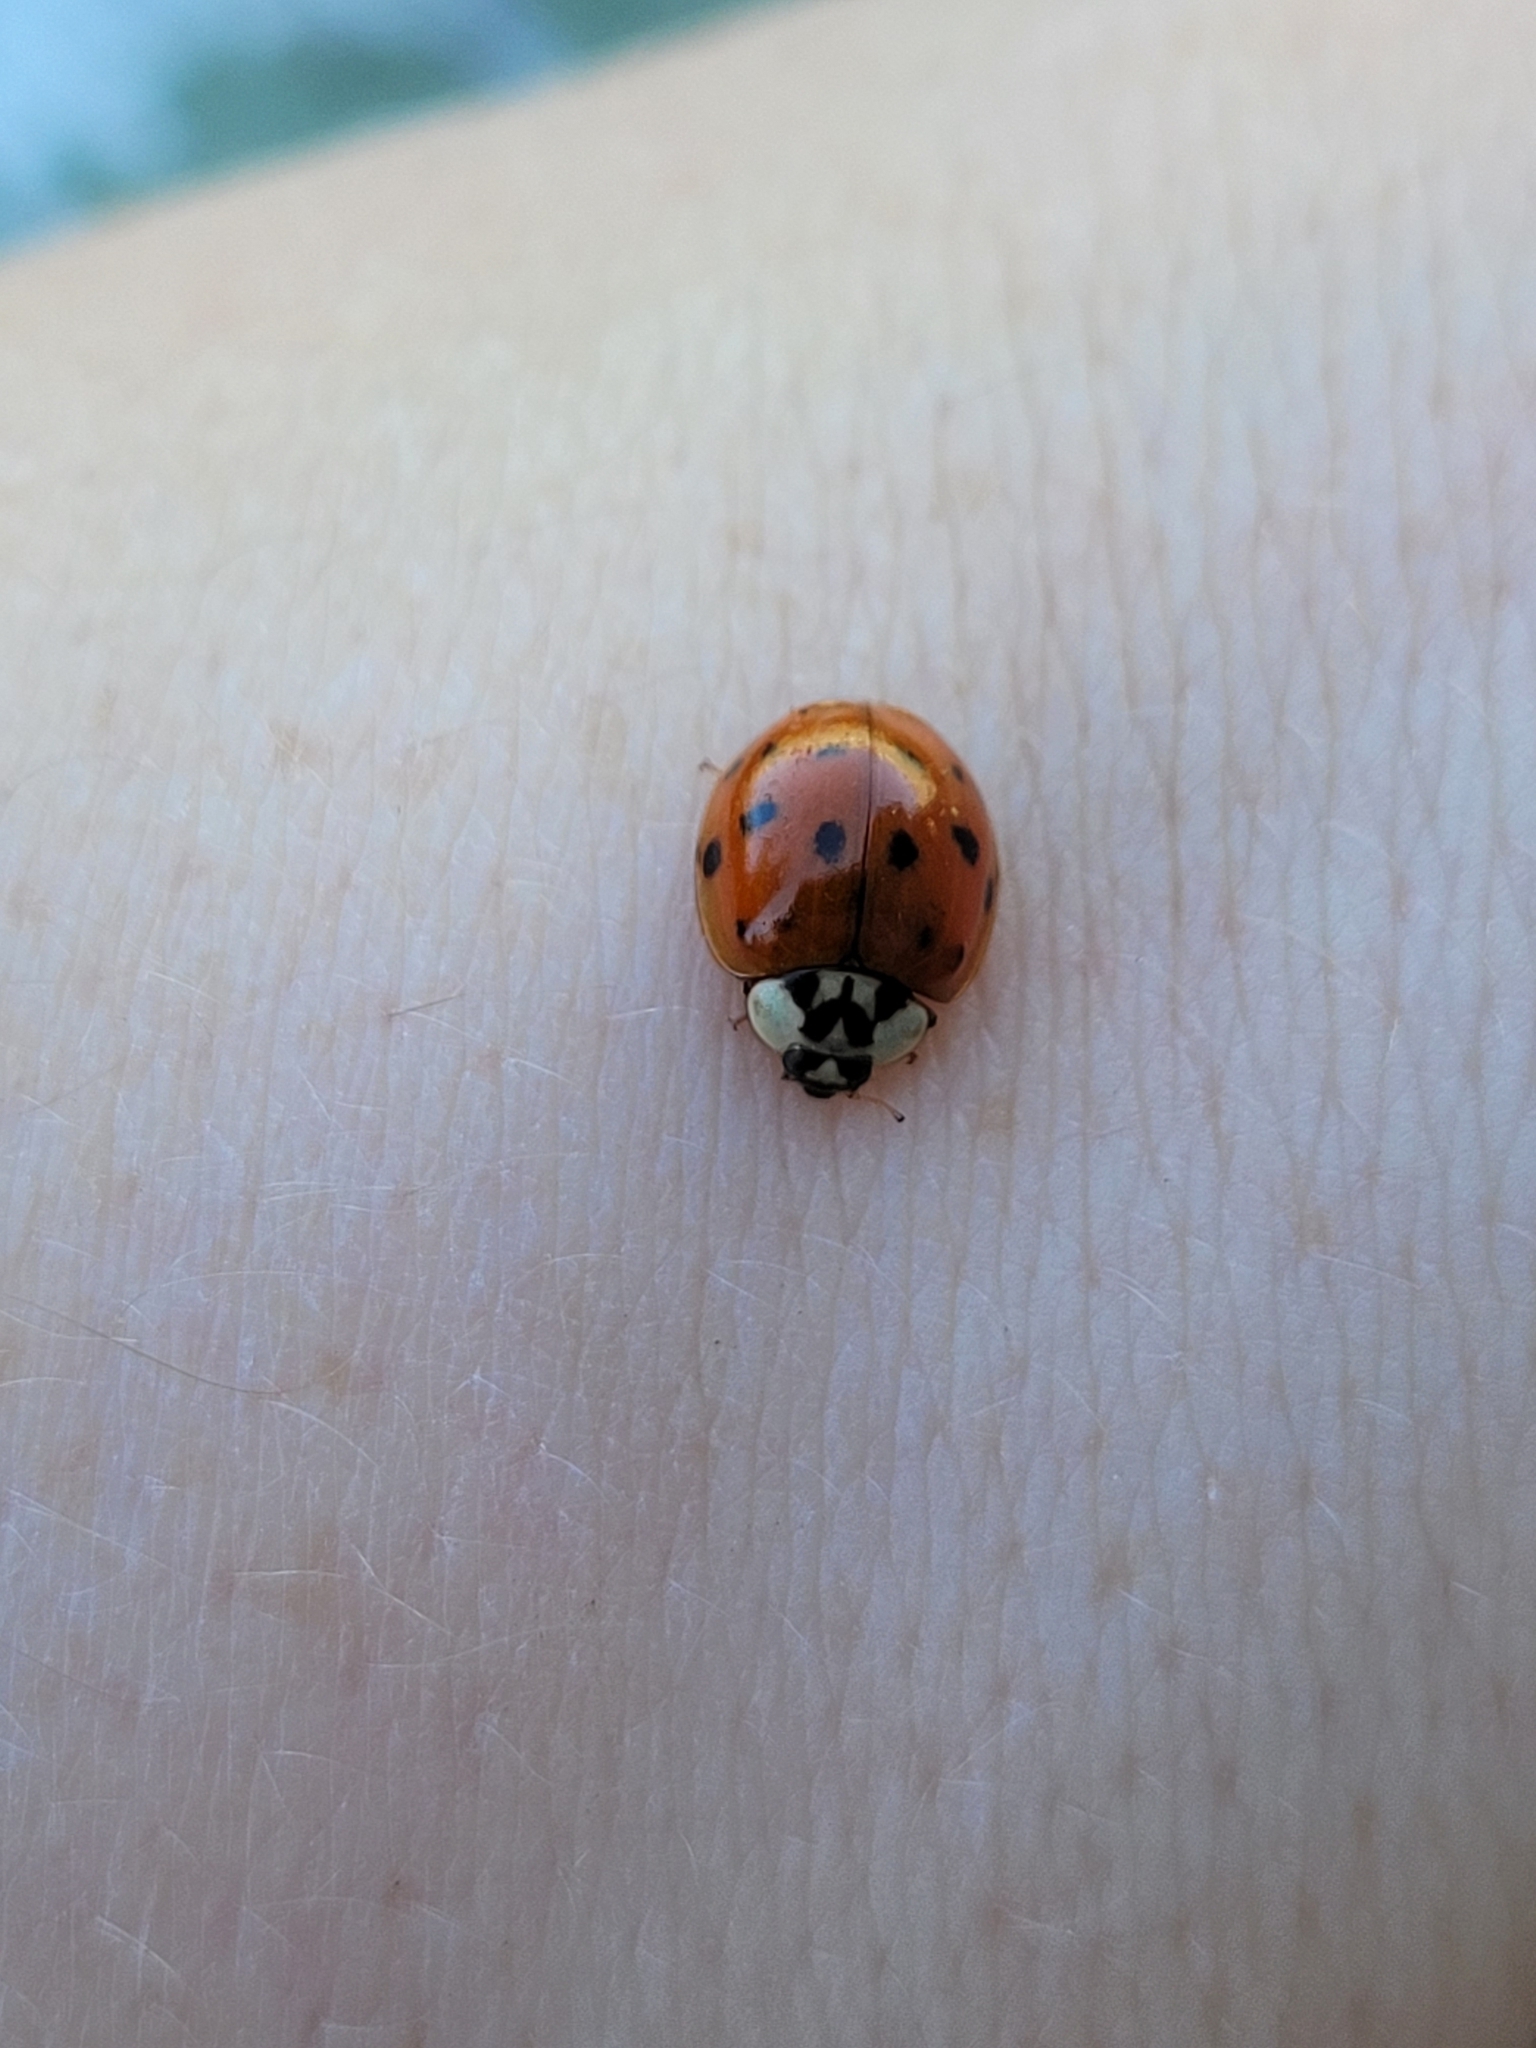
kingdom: Animalia
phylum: Arthropoda
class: Insecta
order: Coleoptera
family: Coccinellidae
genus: Harmonia
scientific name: Harmonia axyridis
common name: Harlequin ladybird
